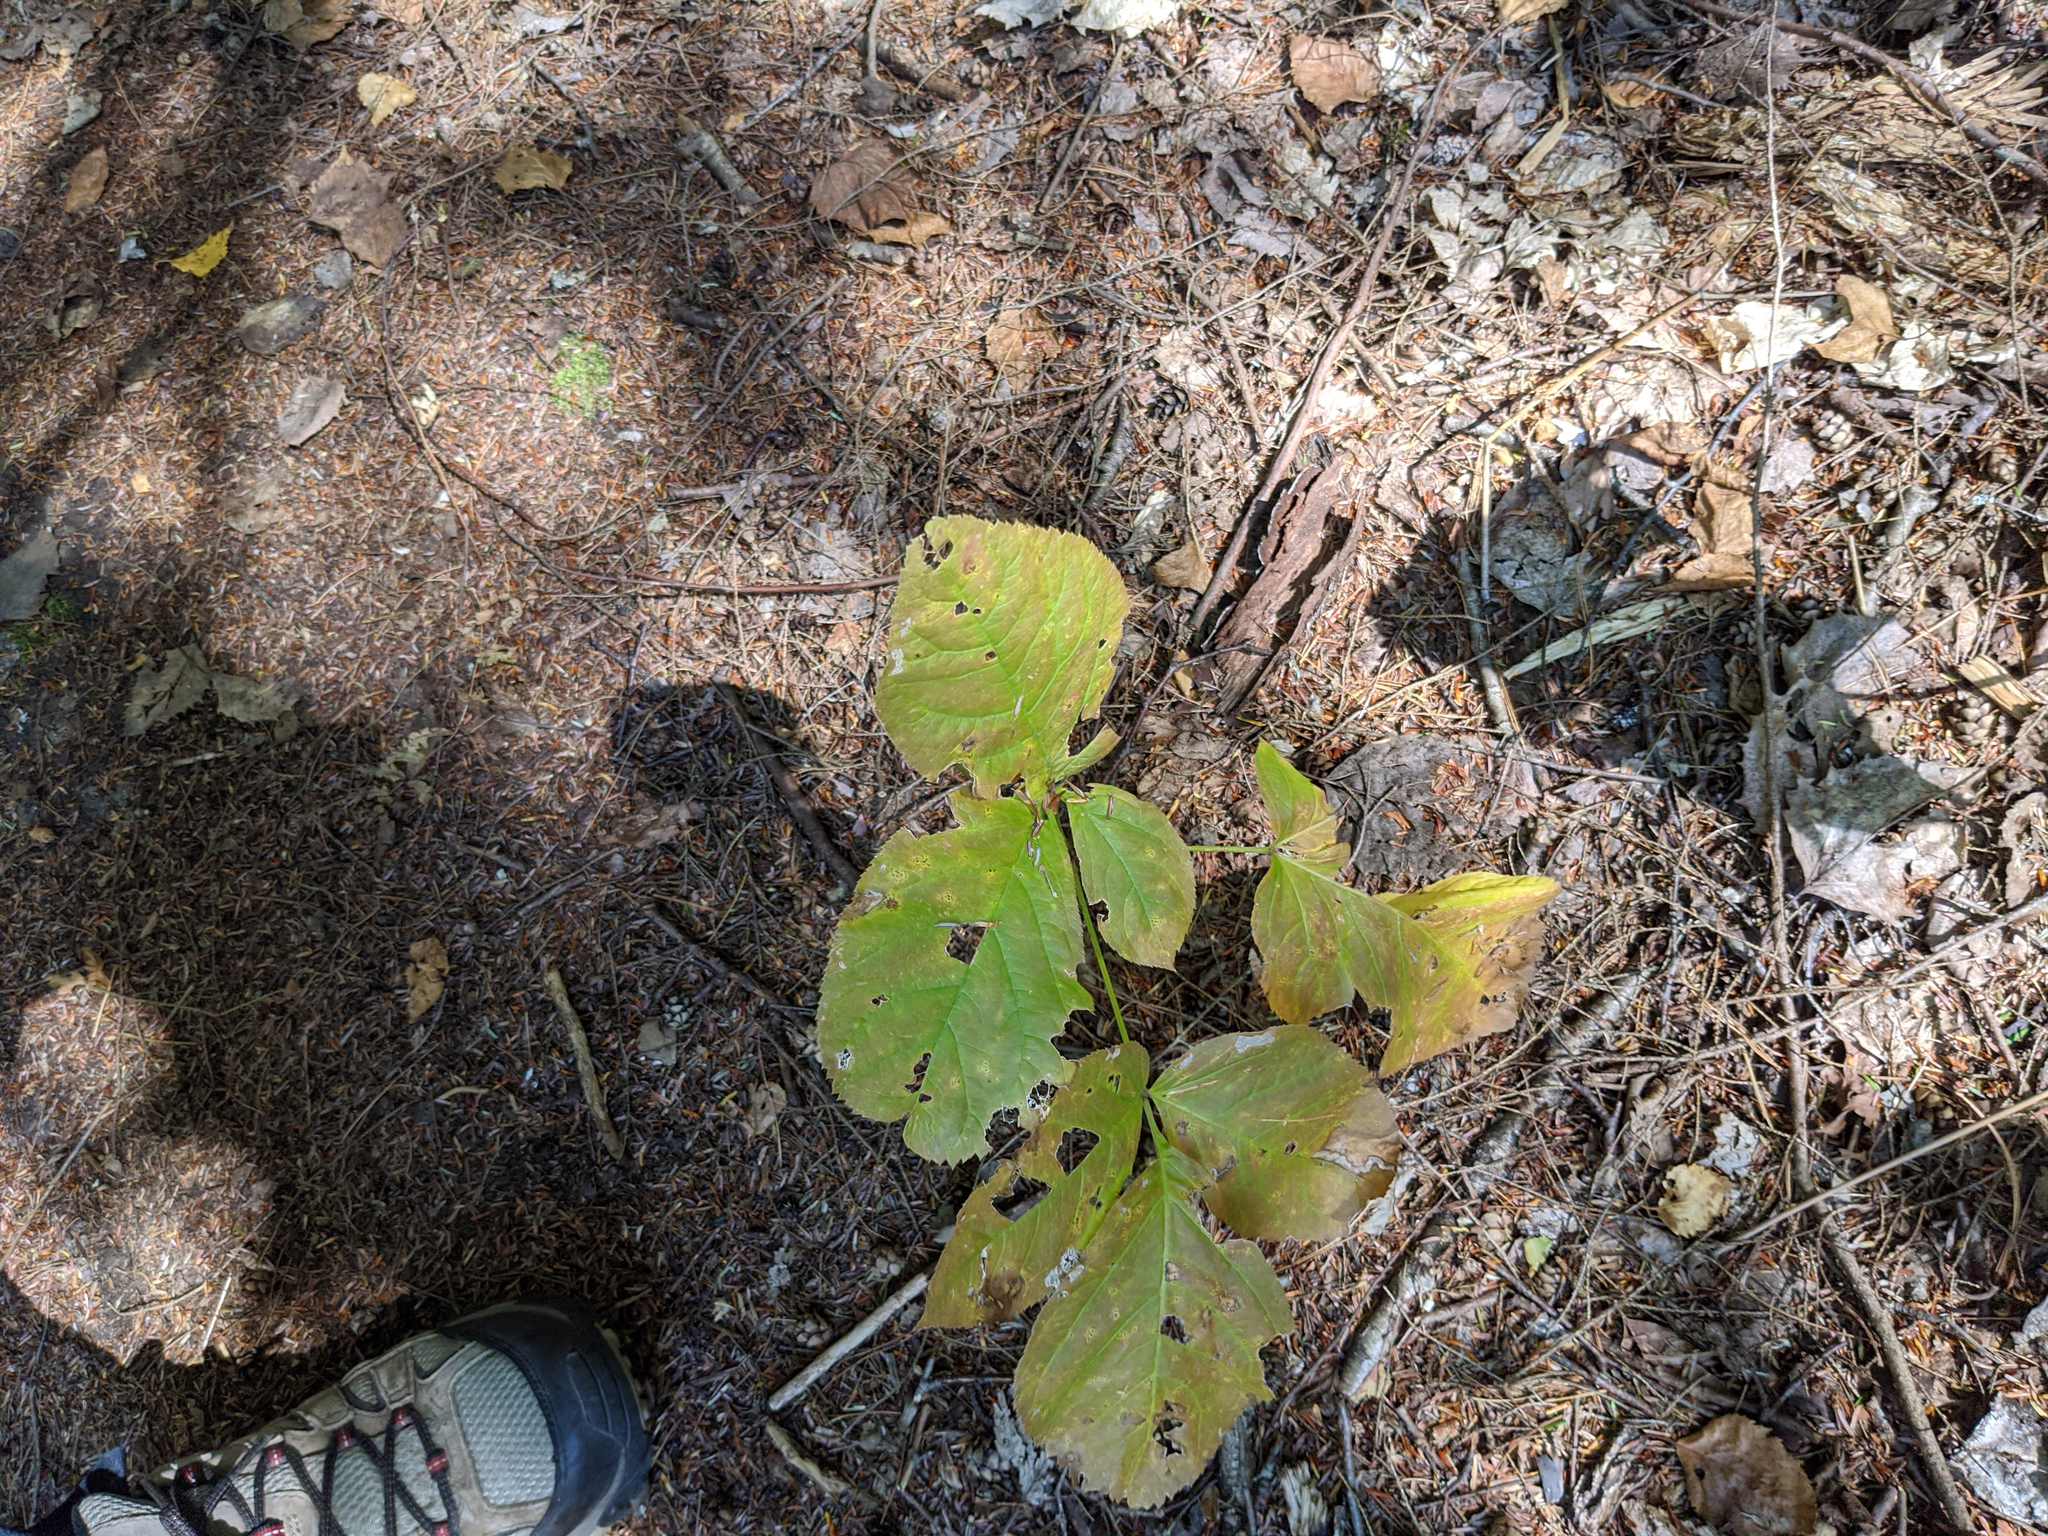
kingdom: Plantae
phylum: Tracheophyta
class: Magnoliopsida
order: Apiales
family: Araliaceae
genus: Aralia
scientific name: Aralia nudicaulis
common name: Wild sarsaparilla
